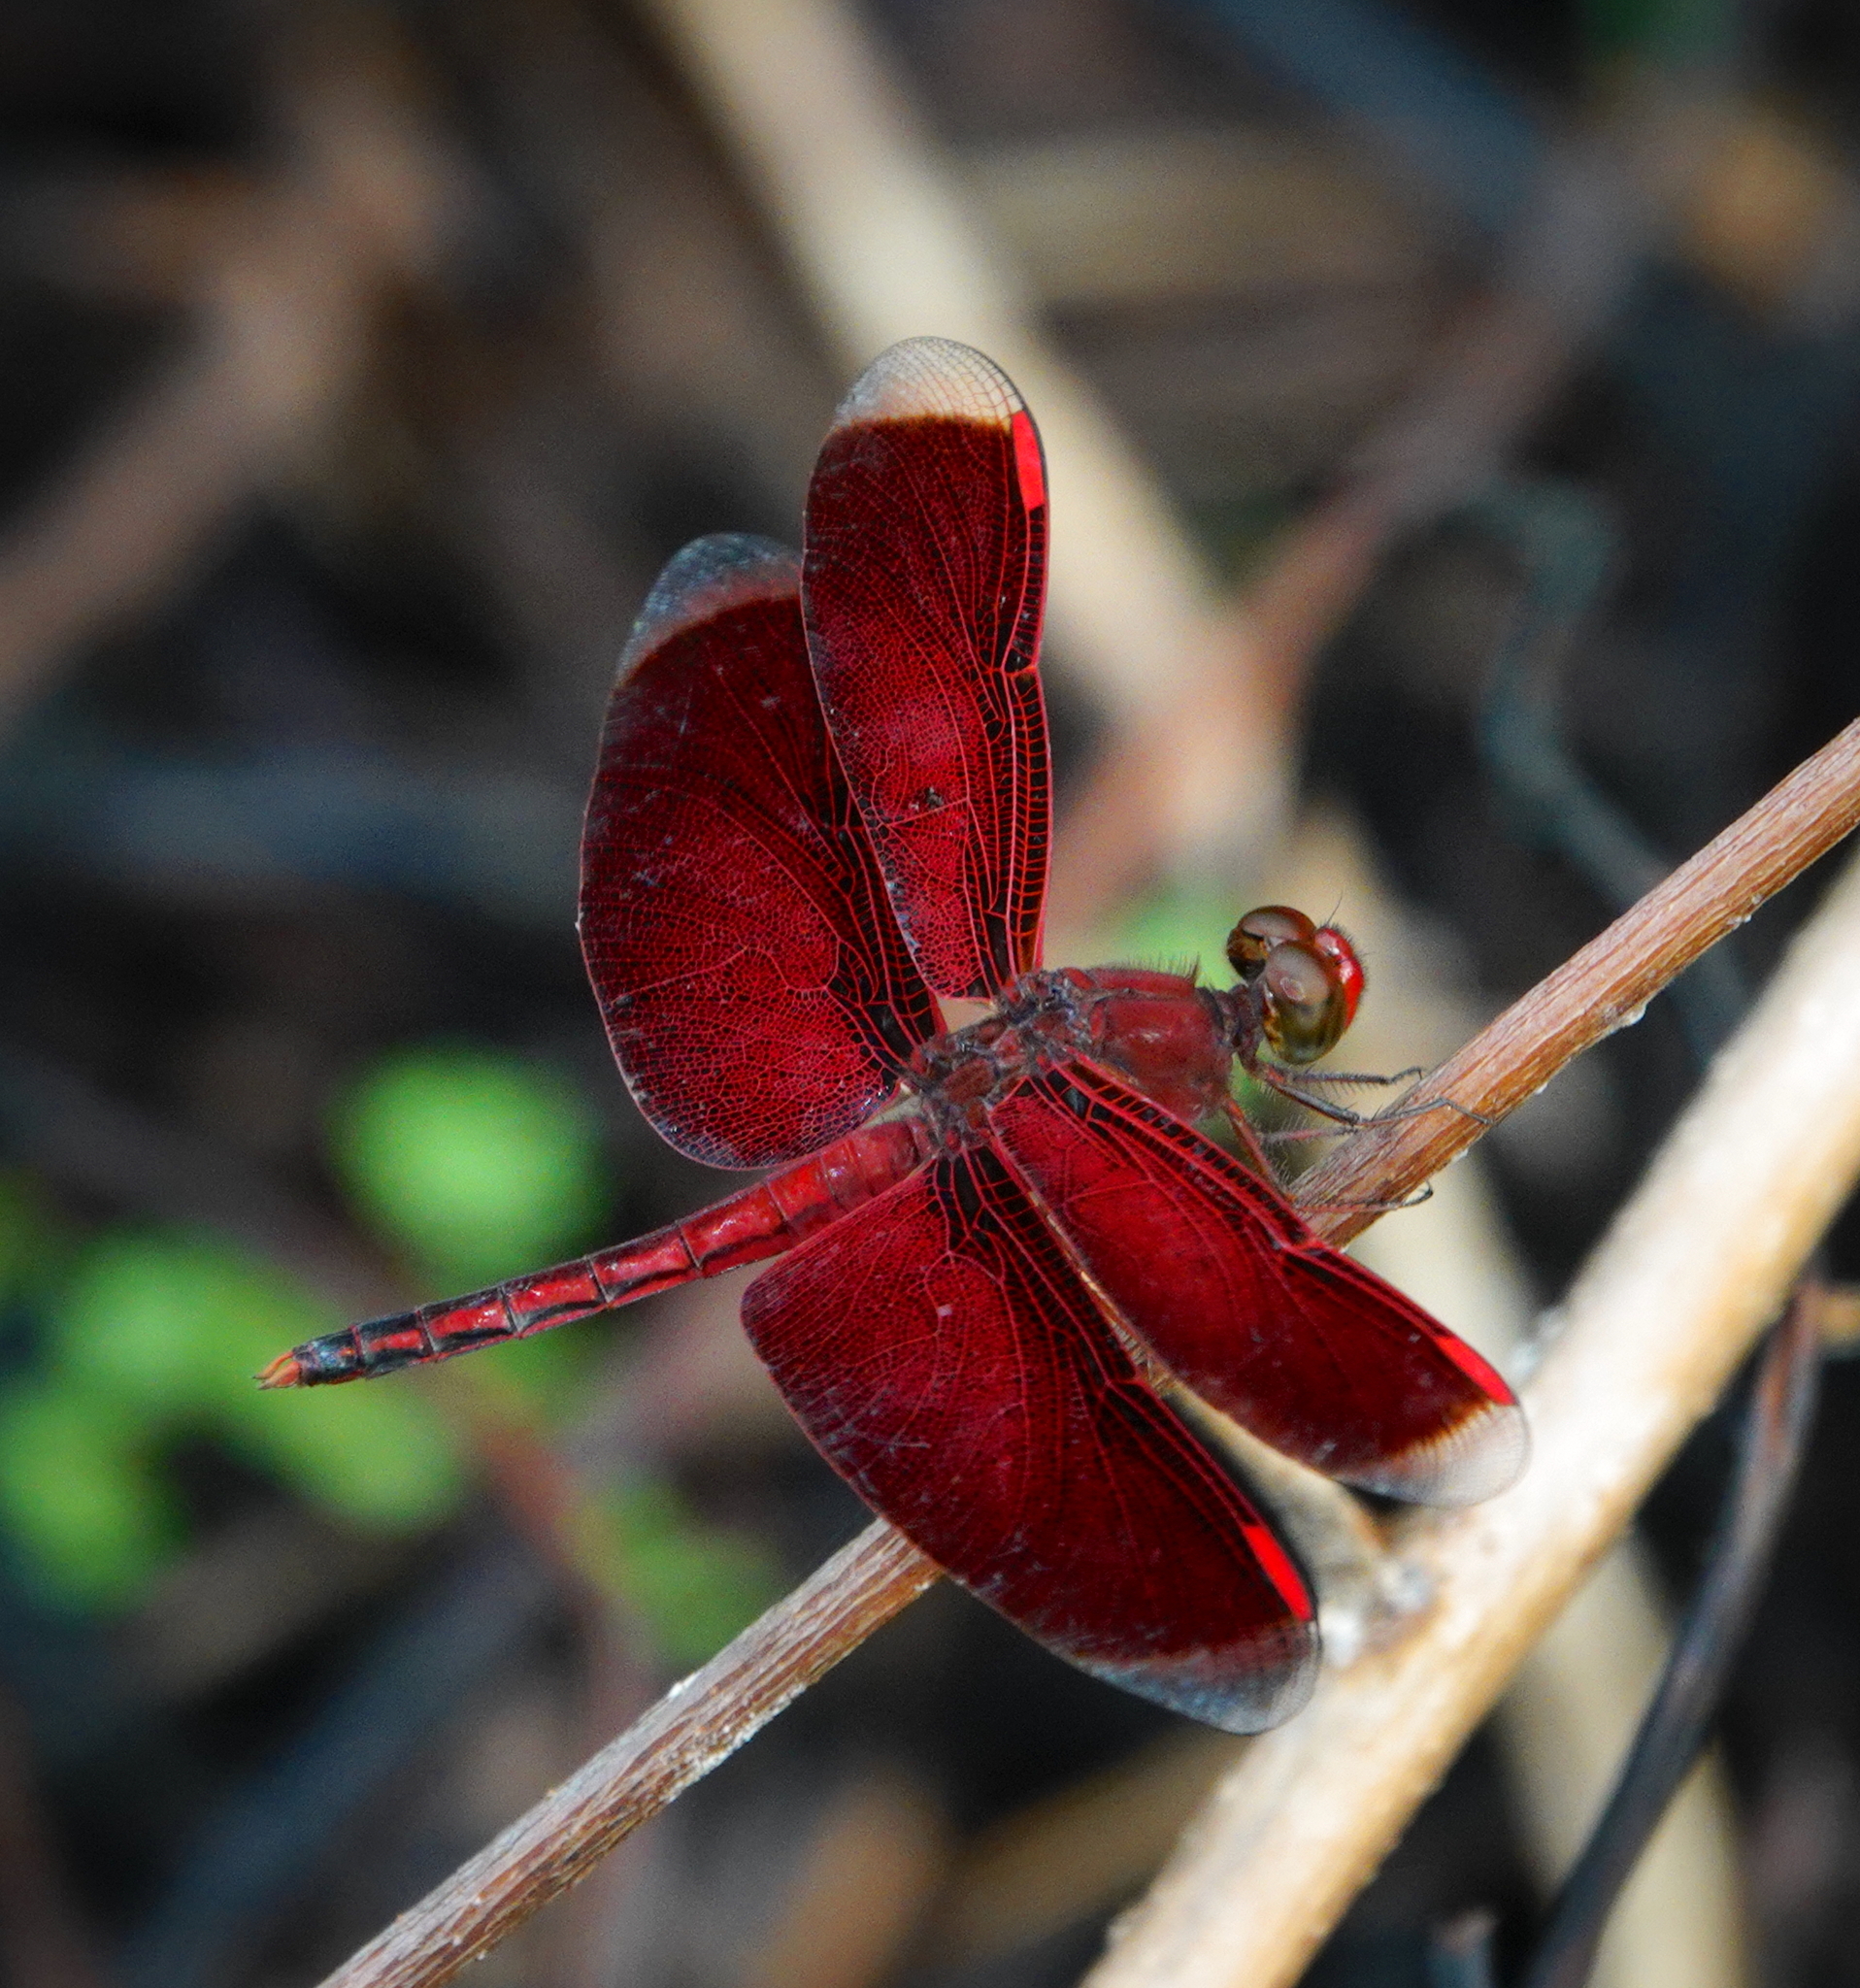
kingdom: Animalia
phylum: Arthropoda
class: Insecta
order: Odonata
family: Libellulidae
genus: Neurothemis
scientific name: Neurothemis manadensis
